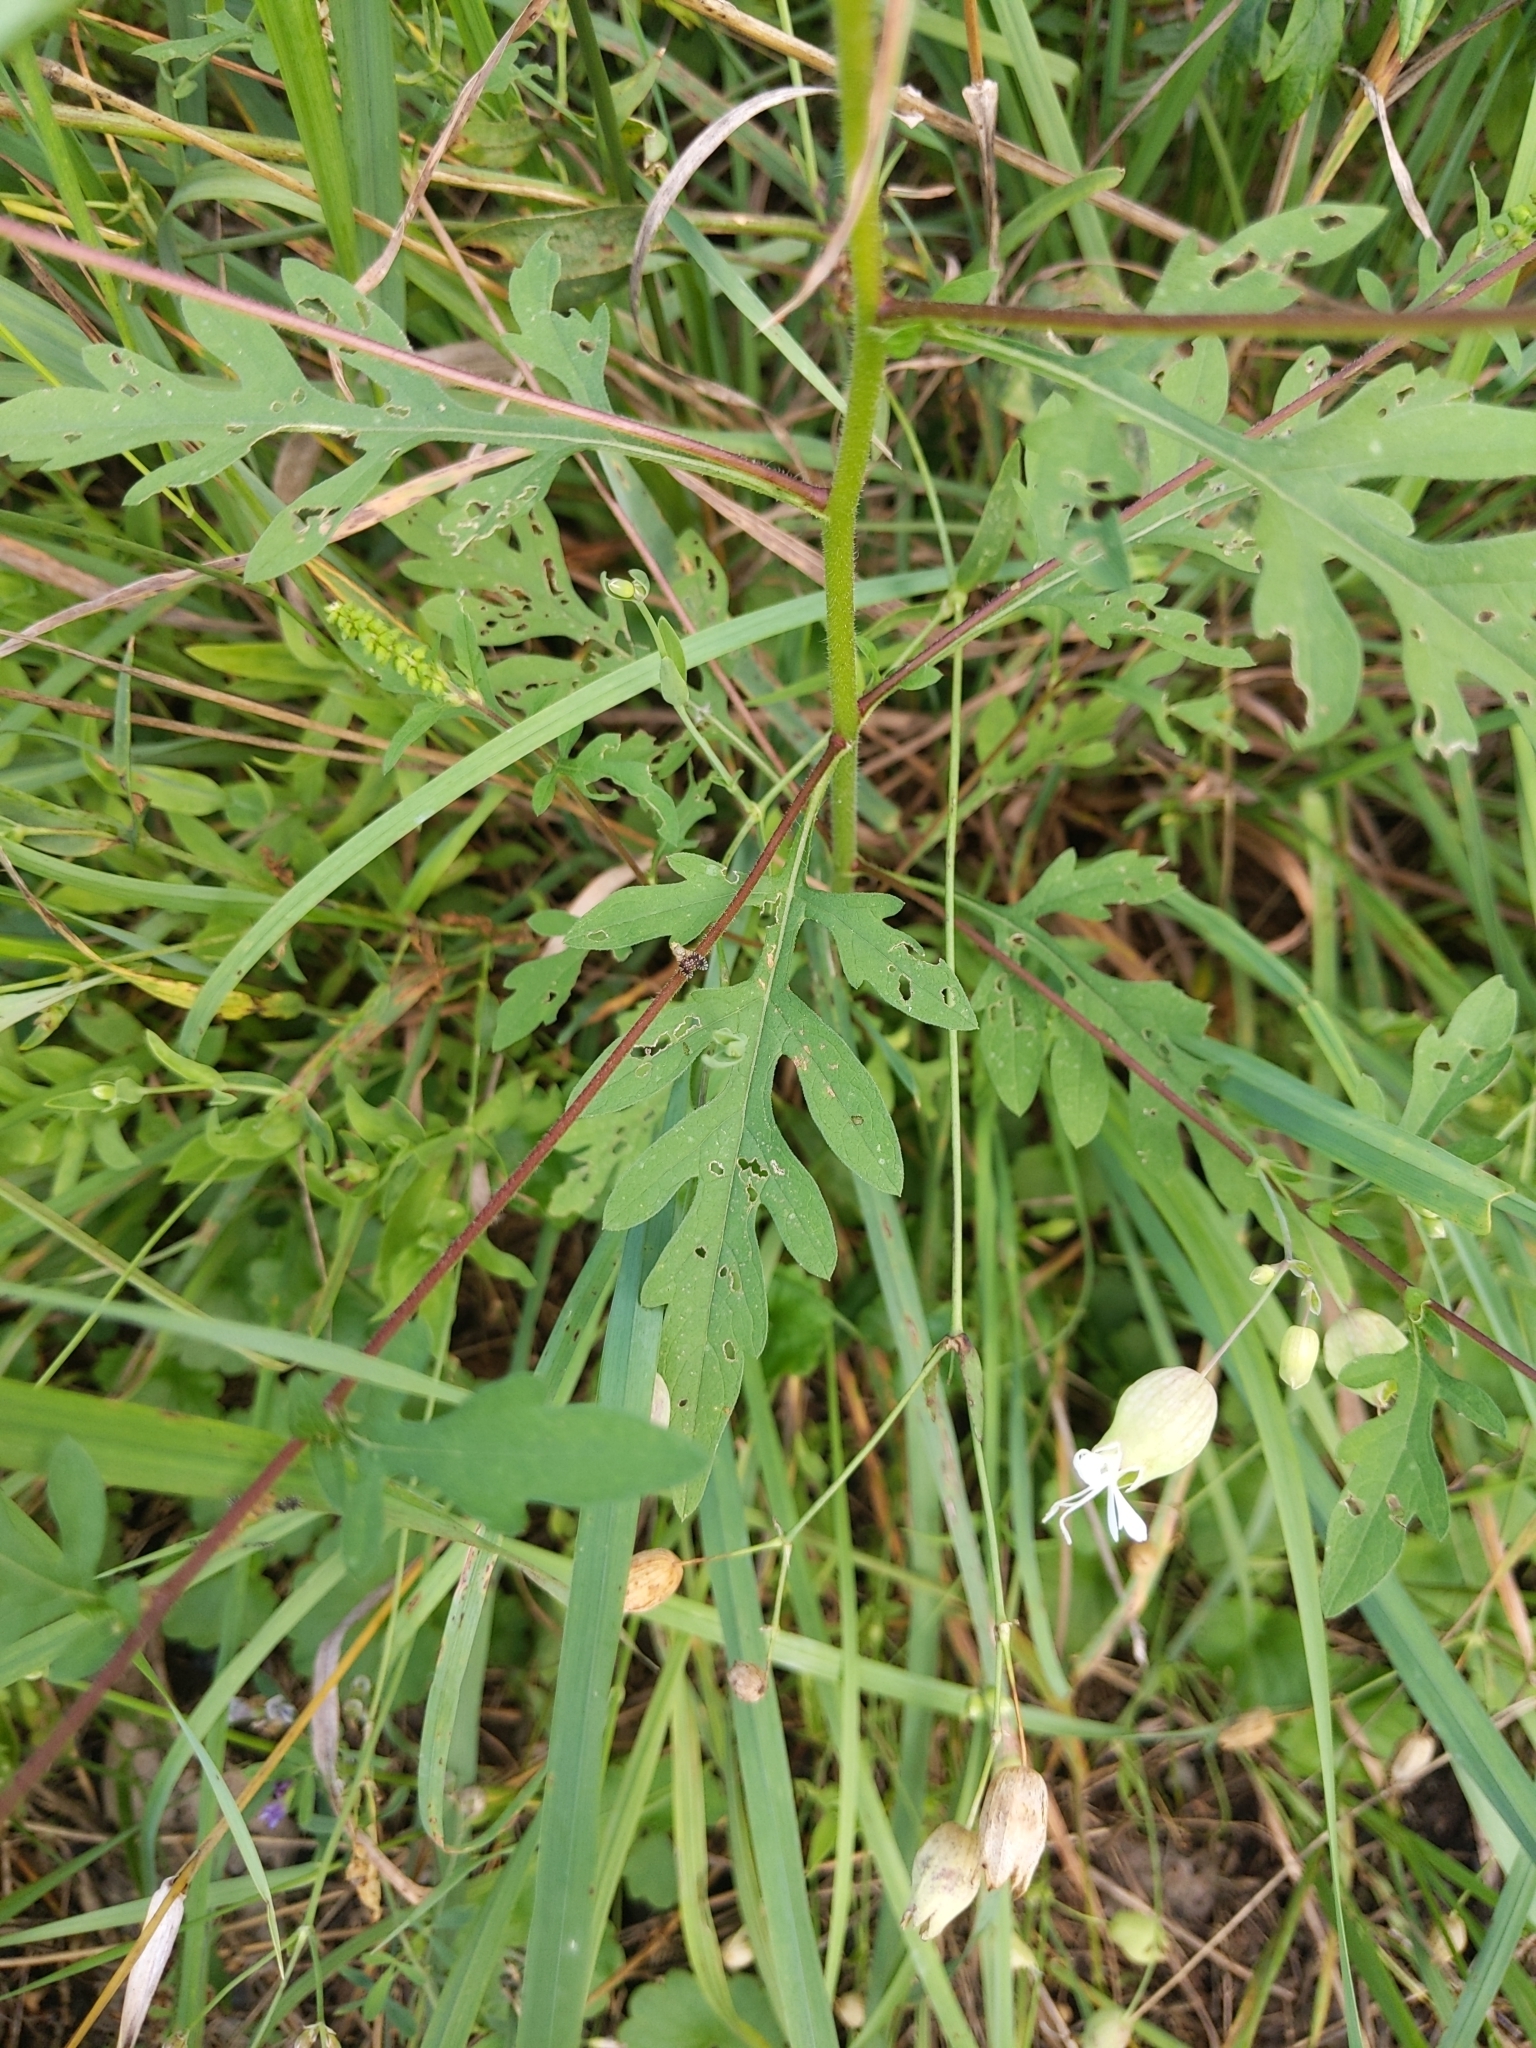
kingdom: Plantae
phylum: Tracheophyta
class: Magnoliopsida
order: Asterales
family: Asteraceae
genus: Ambrosia
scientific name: Ambrosia artemisiifolia
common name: Annual ragweed
